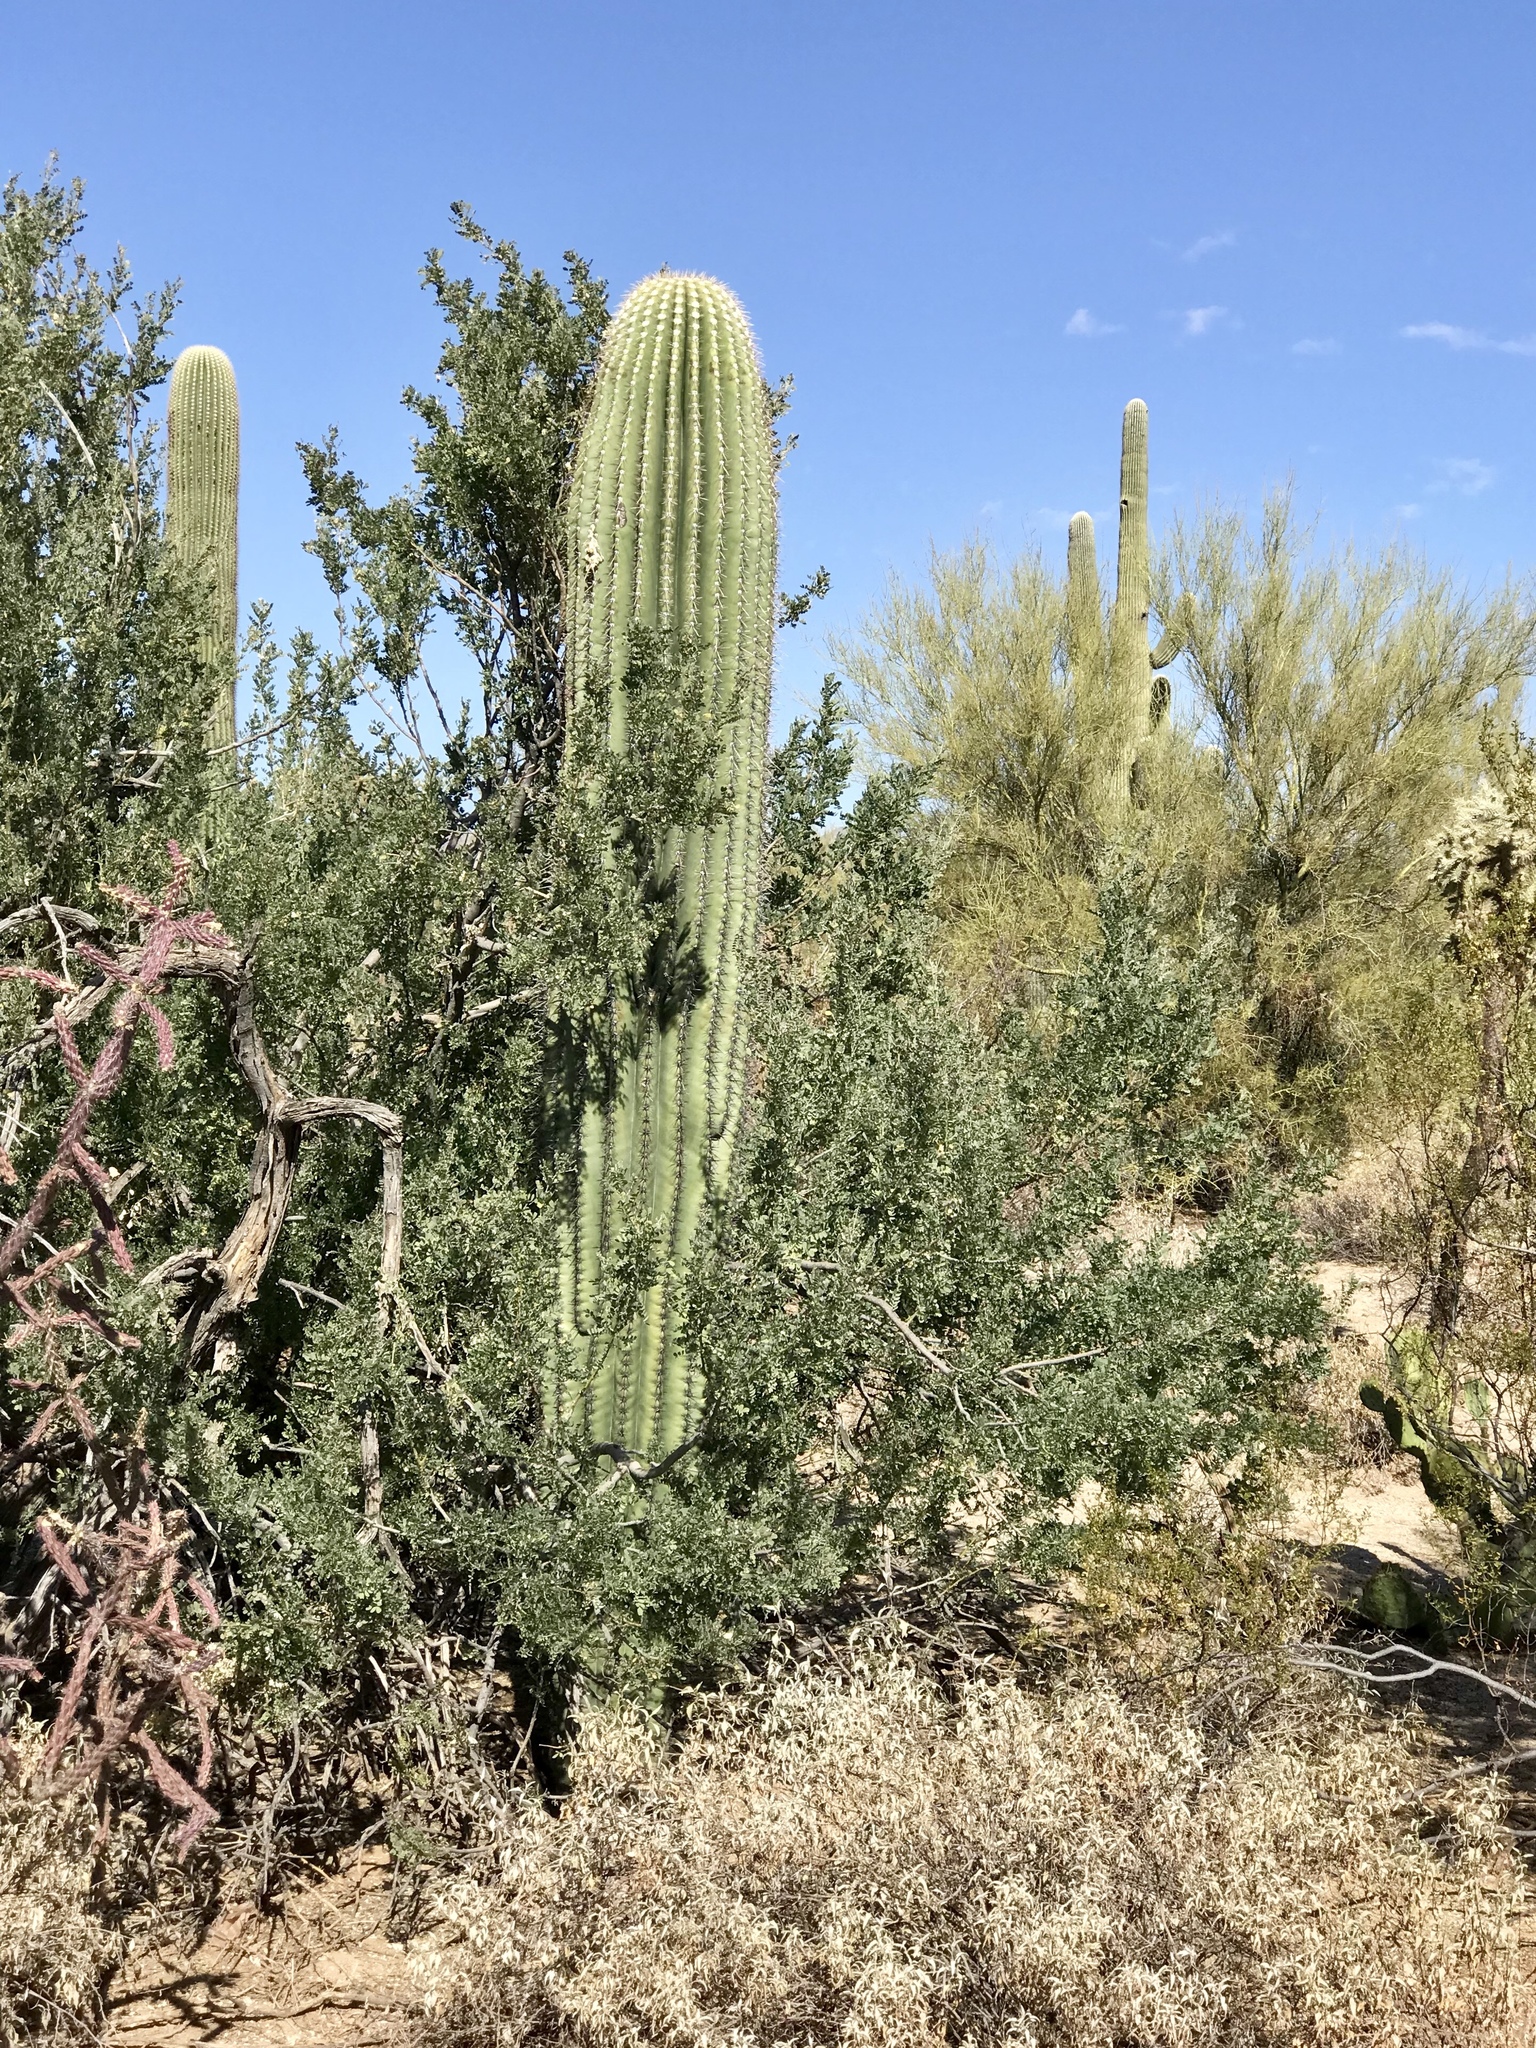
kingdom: Plantae
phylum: Tracheophyta
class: Magnoliopsida
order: Caryophyllales
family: Cactaceae
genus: Carnegiea
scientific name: Carnegiea gigantea
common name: Saguaro
